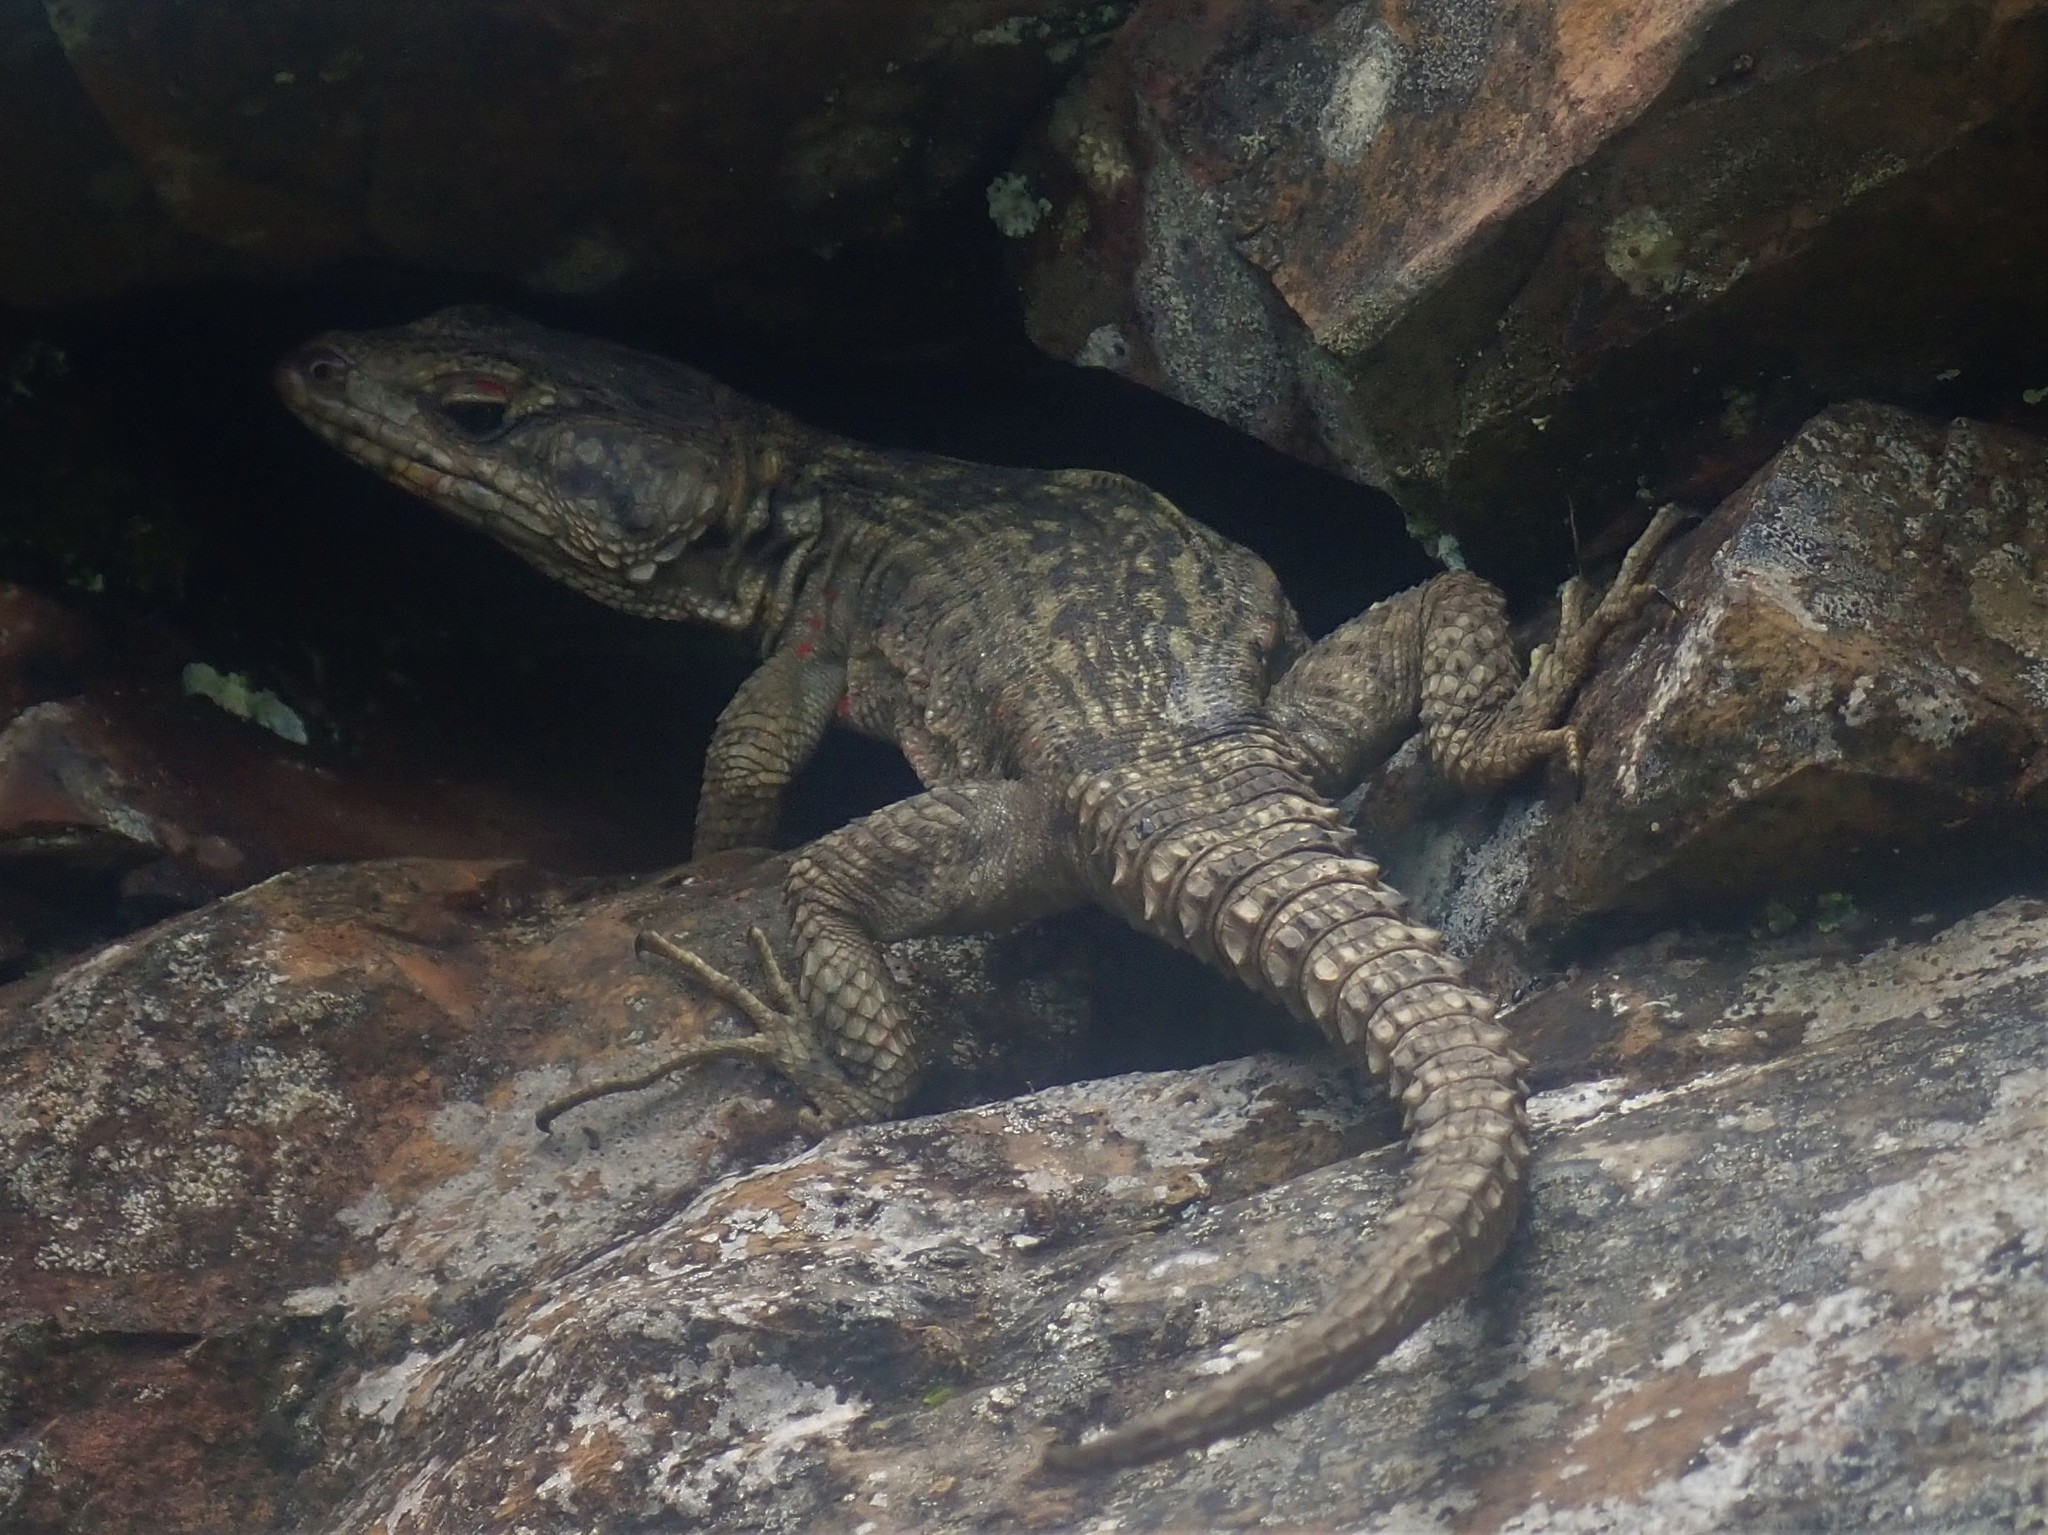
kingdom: Animalia
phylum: Chordata
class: Squamata
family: Cordylidae
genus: Pseudocordylus
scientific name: Pseudocordylus melanotus
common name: Highveld crag lizard
